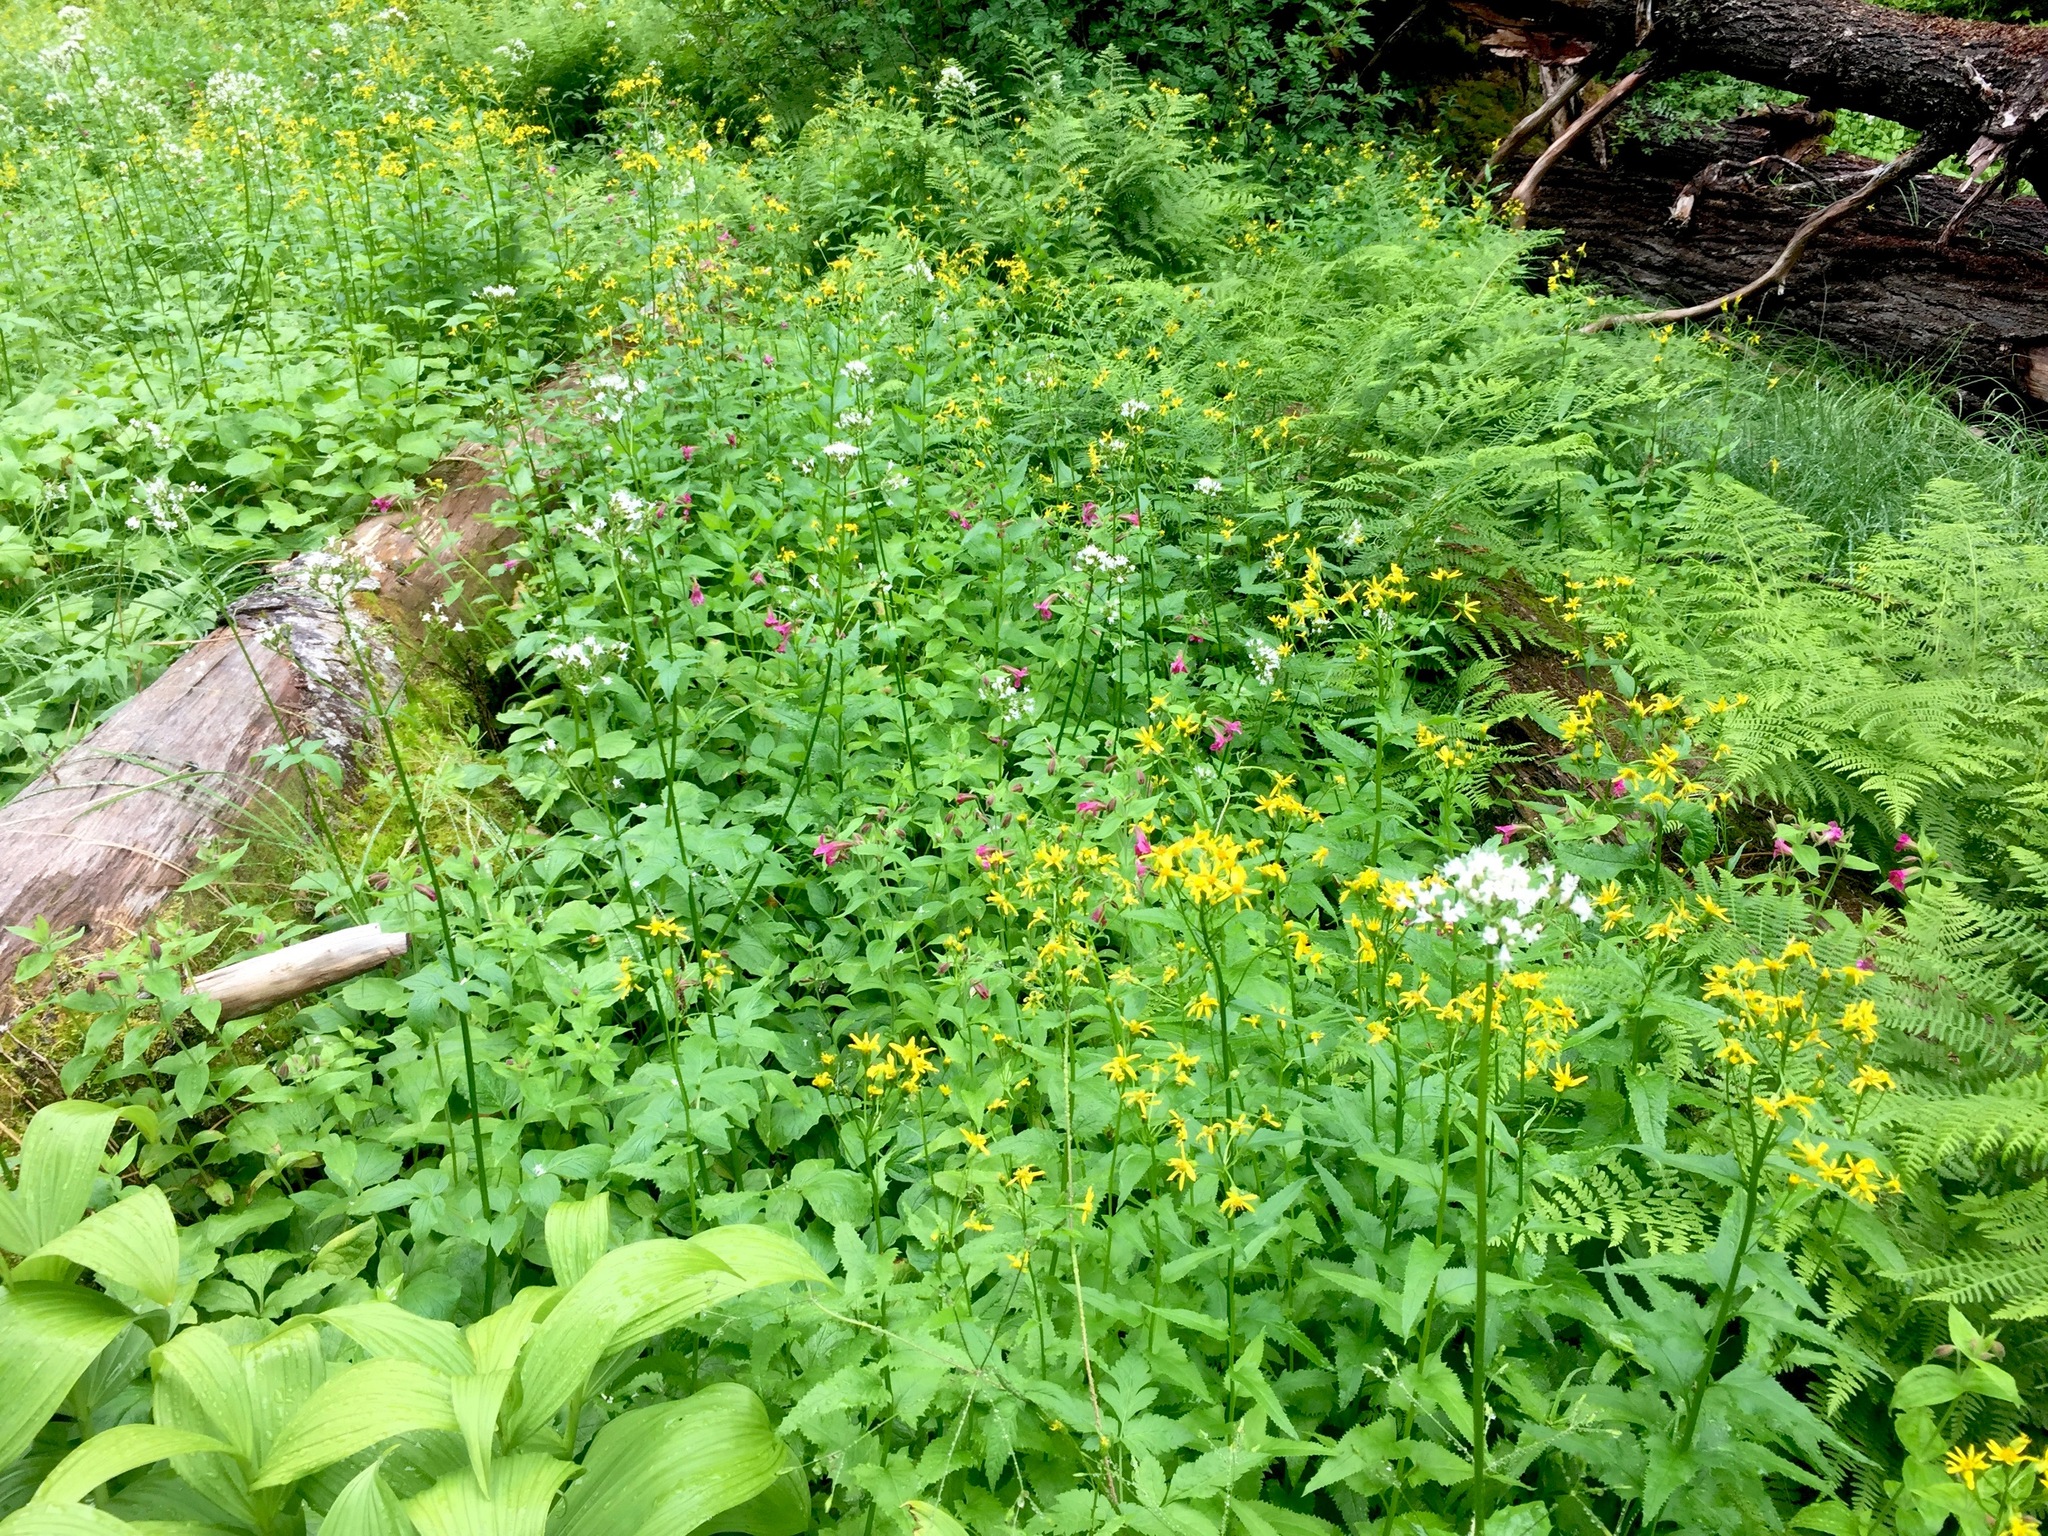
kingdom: Plantae
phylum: Tracheophyta
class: Magnoliopsida
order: Asterales
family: Asteraceae
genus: Senecio
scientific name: Senecio triangularis
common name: Arrowleaf butterweed
